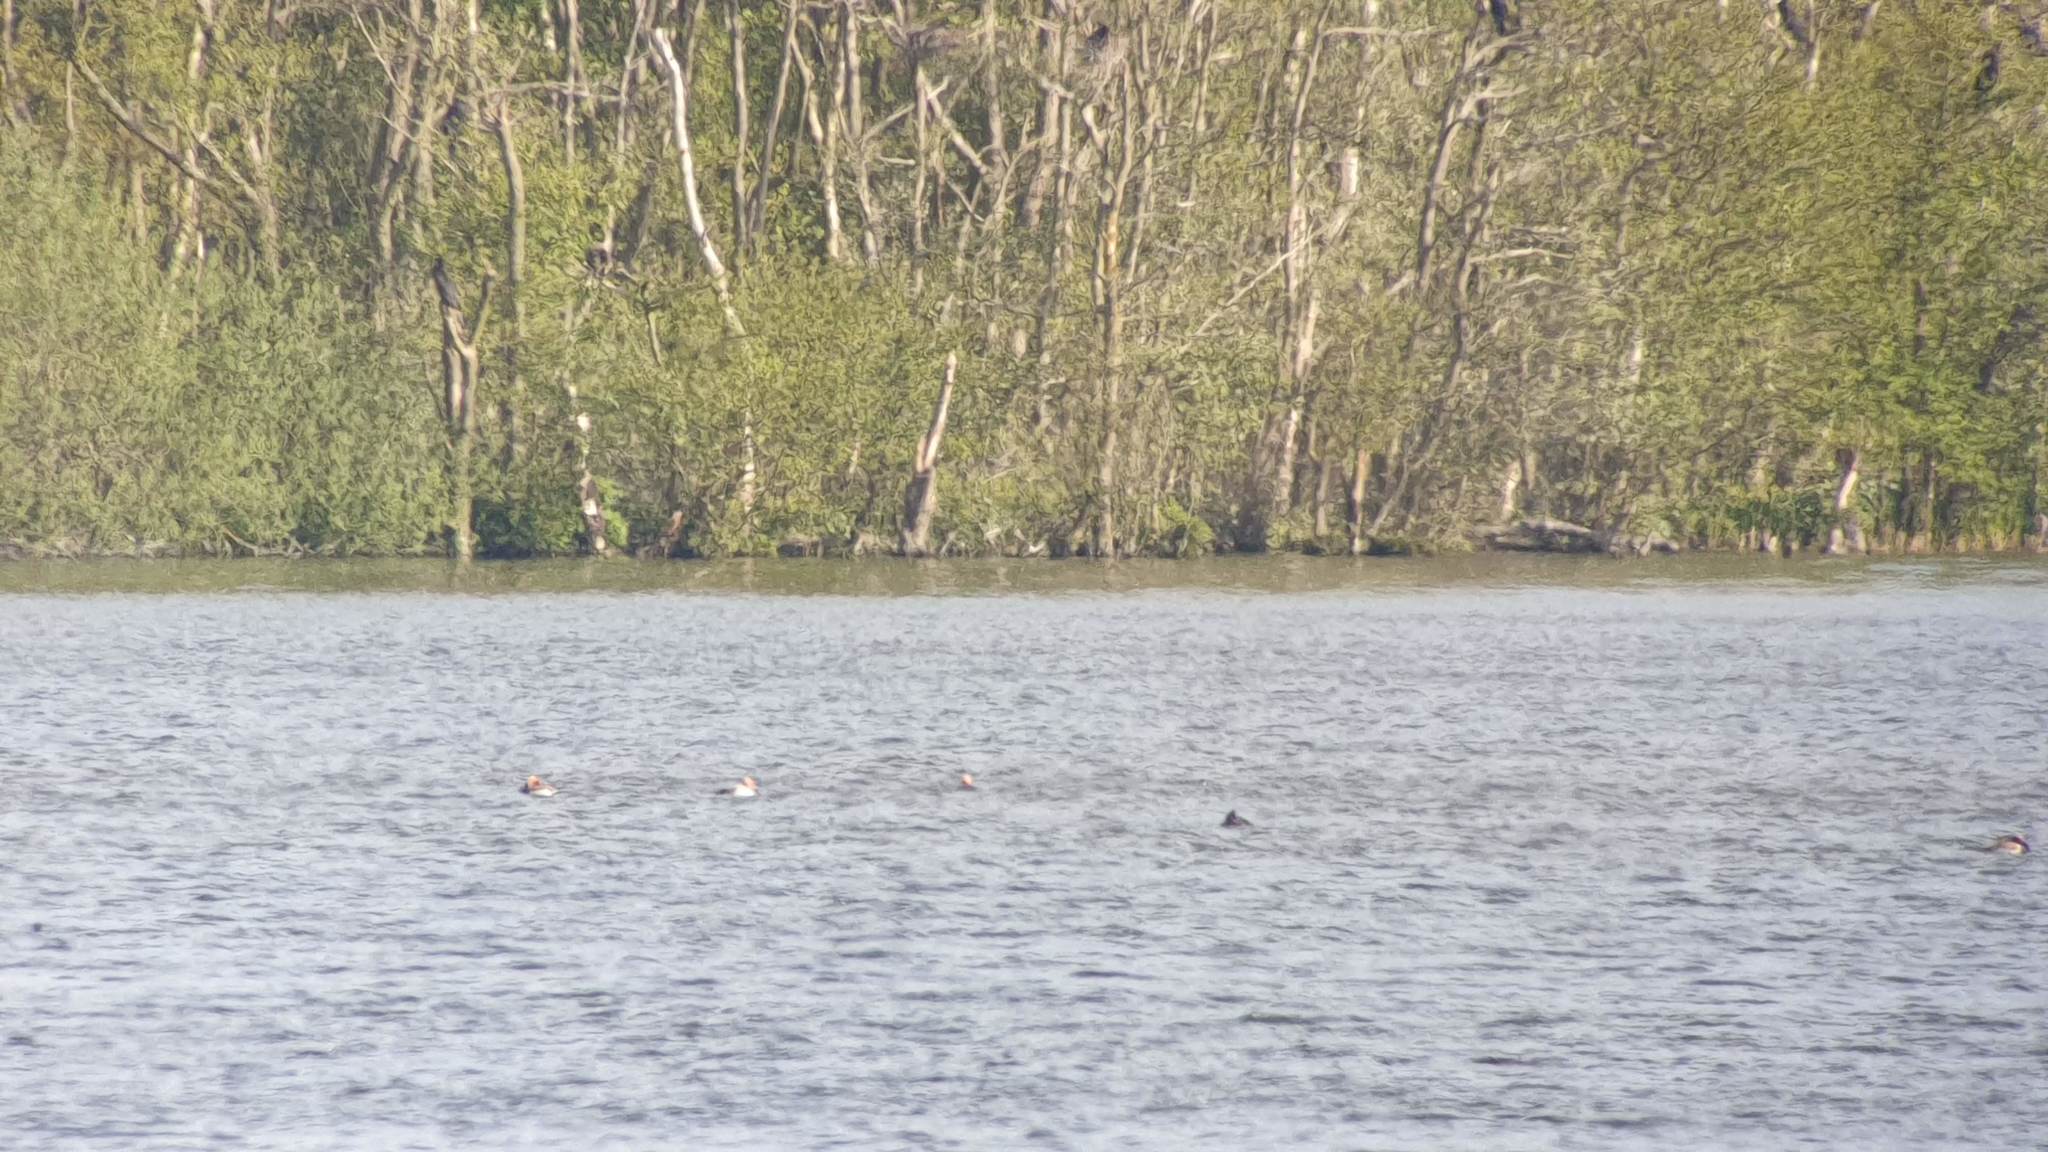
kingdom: Animalia
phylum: Chordata
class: Aves
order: Anseriformes
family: Anatidae
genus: Netta
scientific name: Netta rufina
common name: Red-crested pochard
